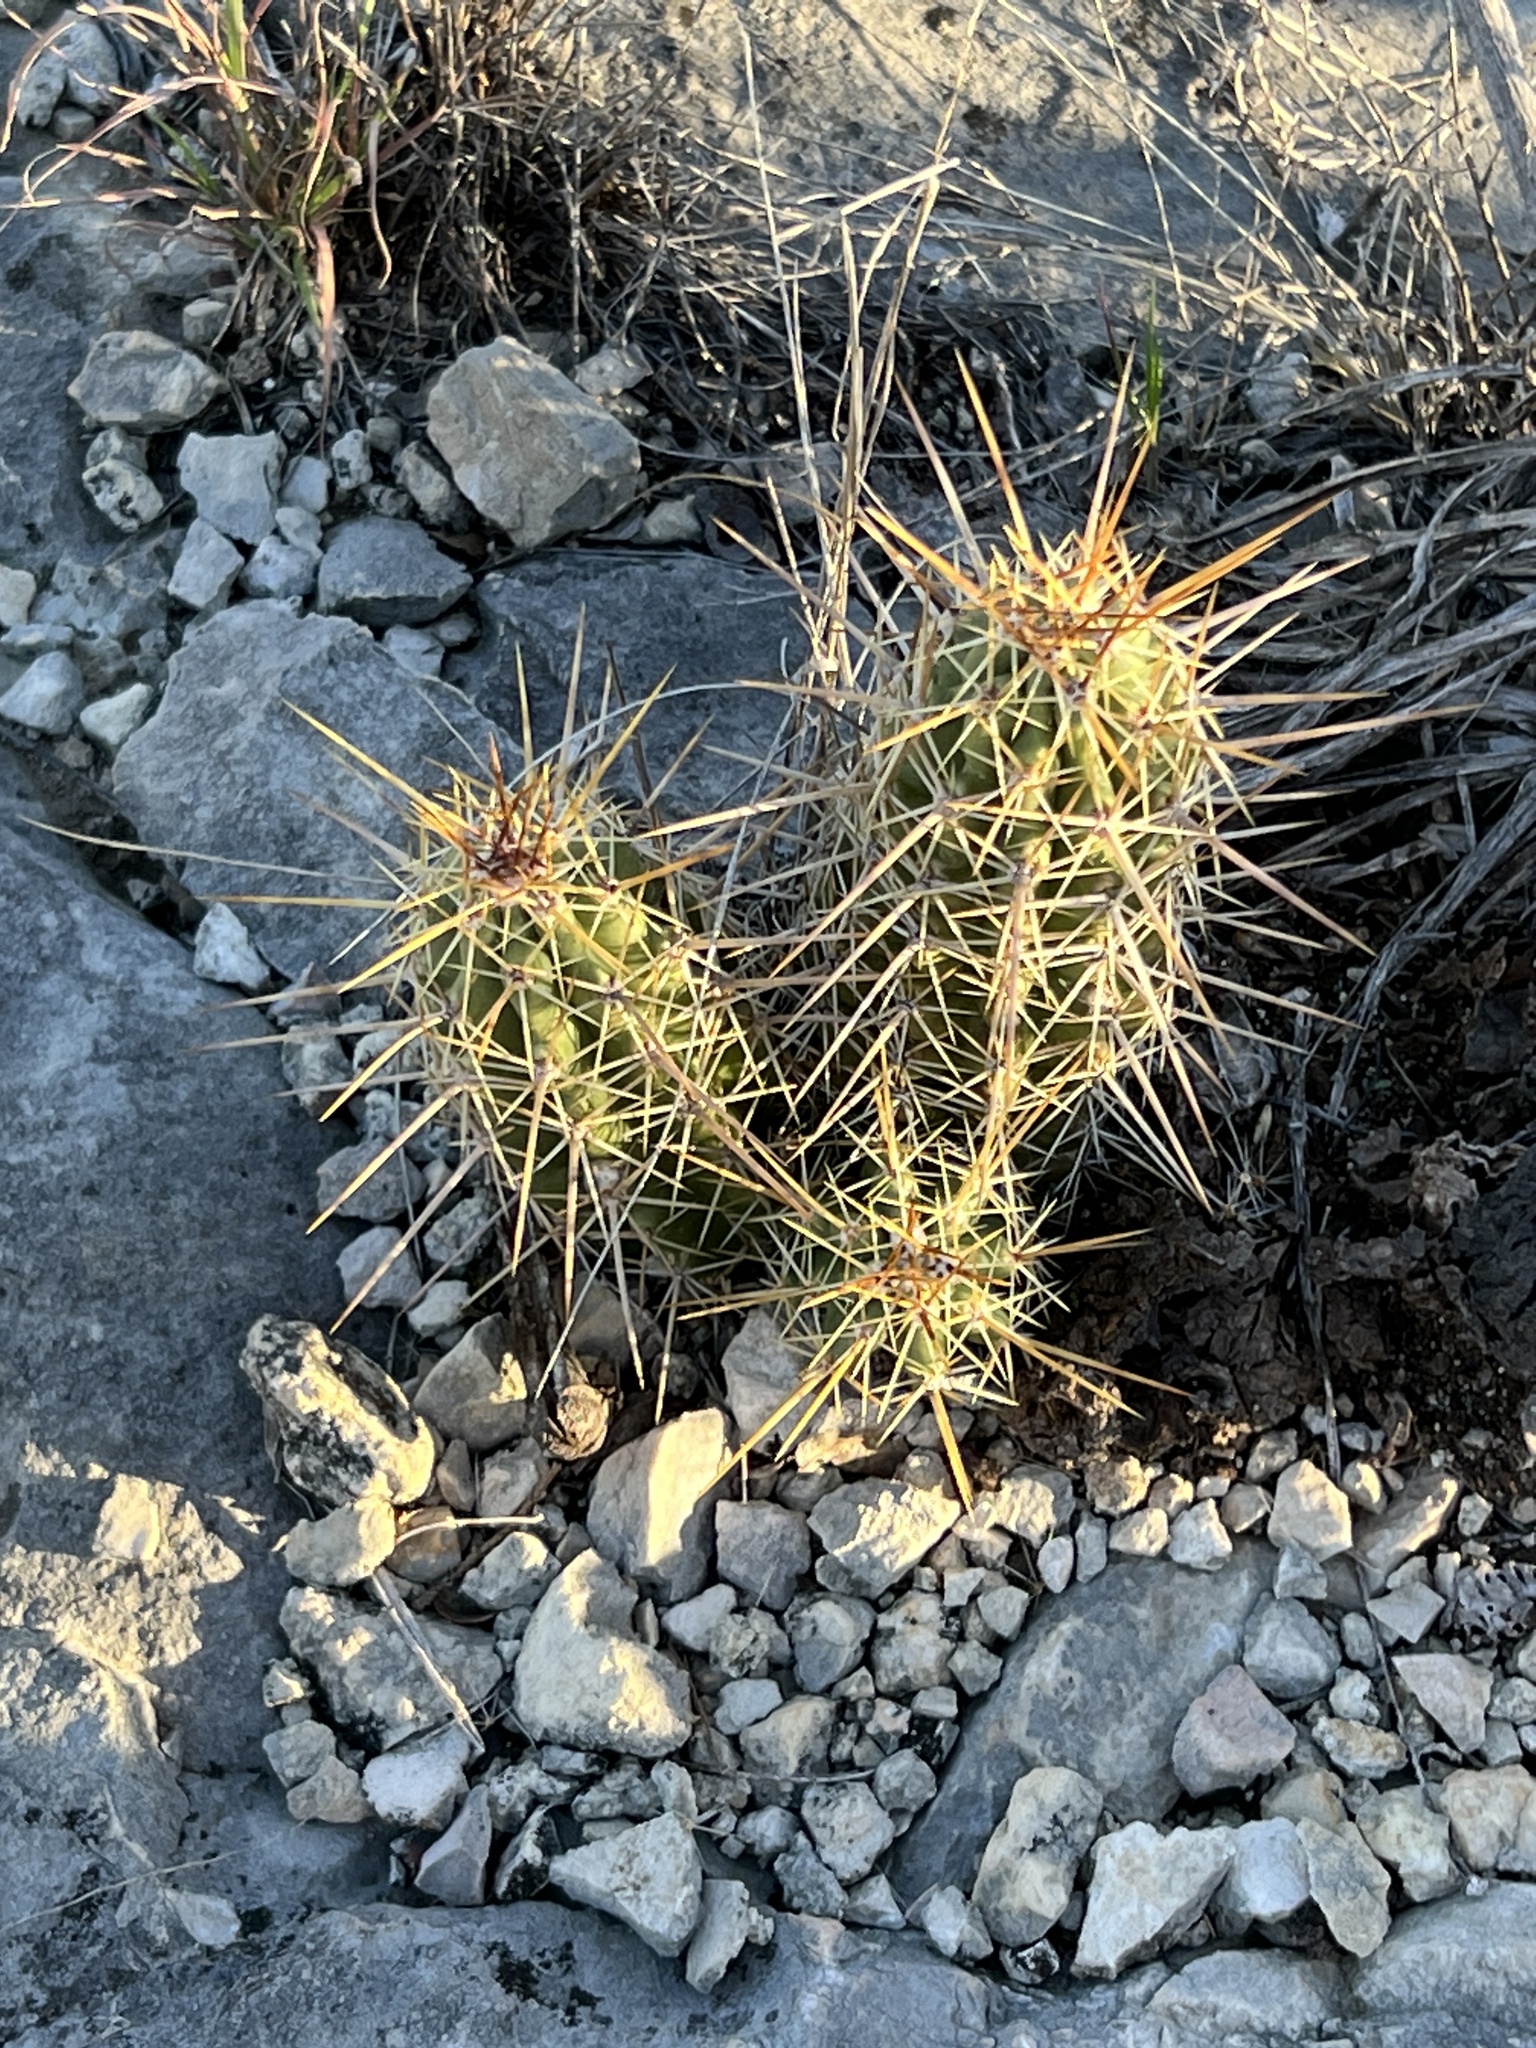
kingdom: Plantae
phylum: Tracheophyta
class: Magnoliopsida
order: Caryophyllales
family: Cactaceae
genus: Echinocereus
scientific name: Echinocereus enneacanthus
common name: Pitaya
